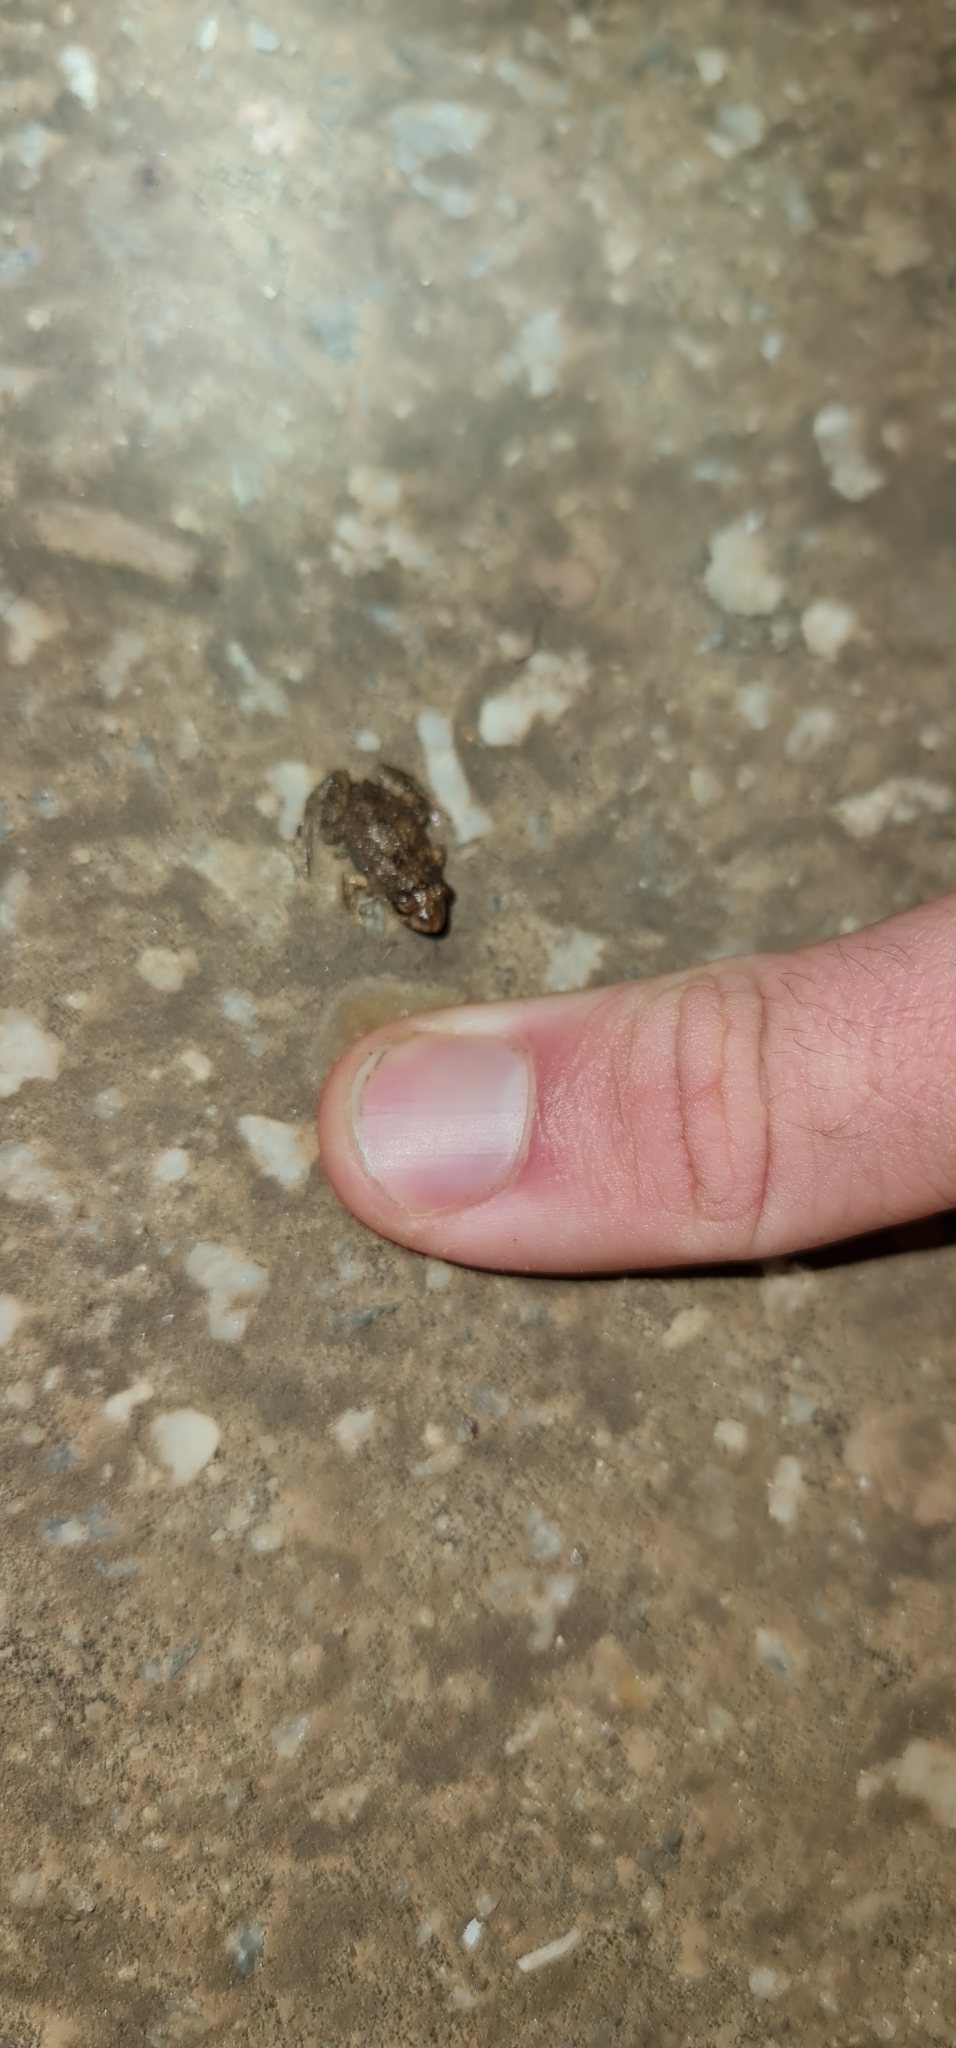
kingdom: Animalia
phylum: Chordata
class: Amphibia
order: Anura
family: Myobatrachidae
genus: Crinia
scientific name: Crinia signifera
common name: Brown froglet
